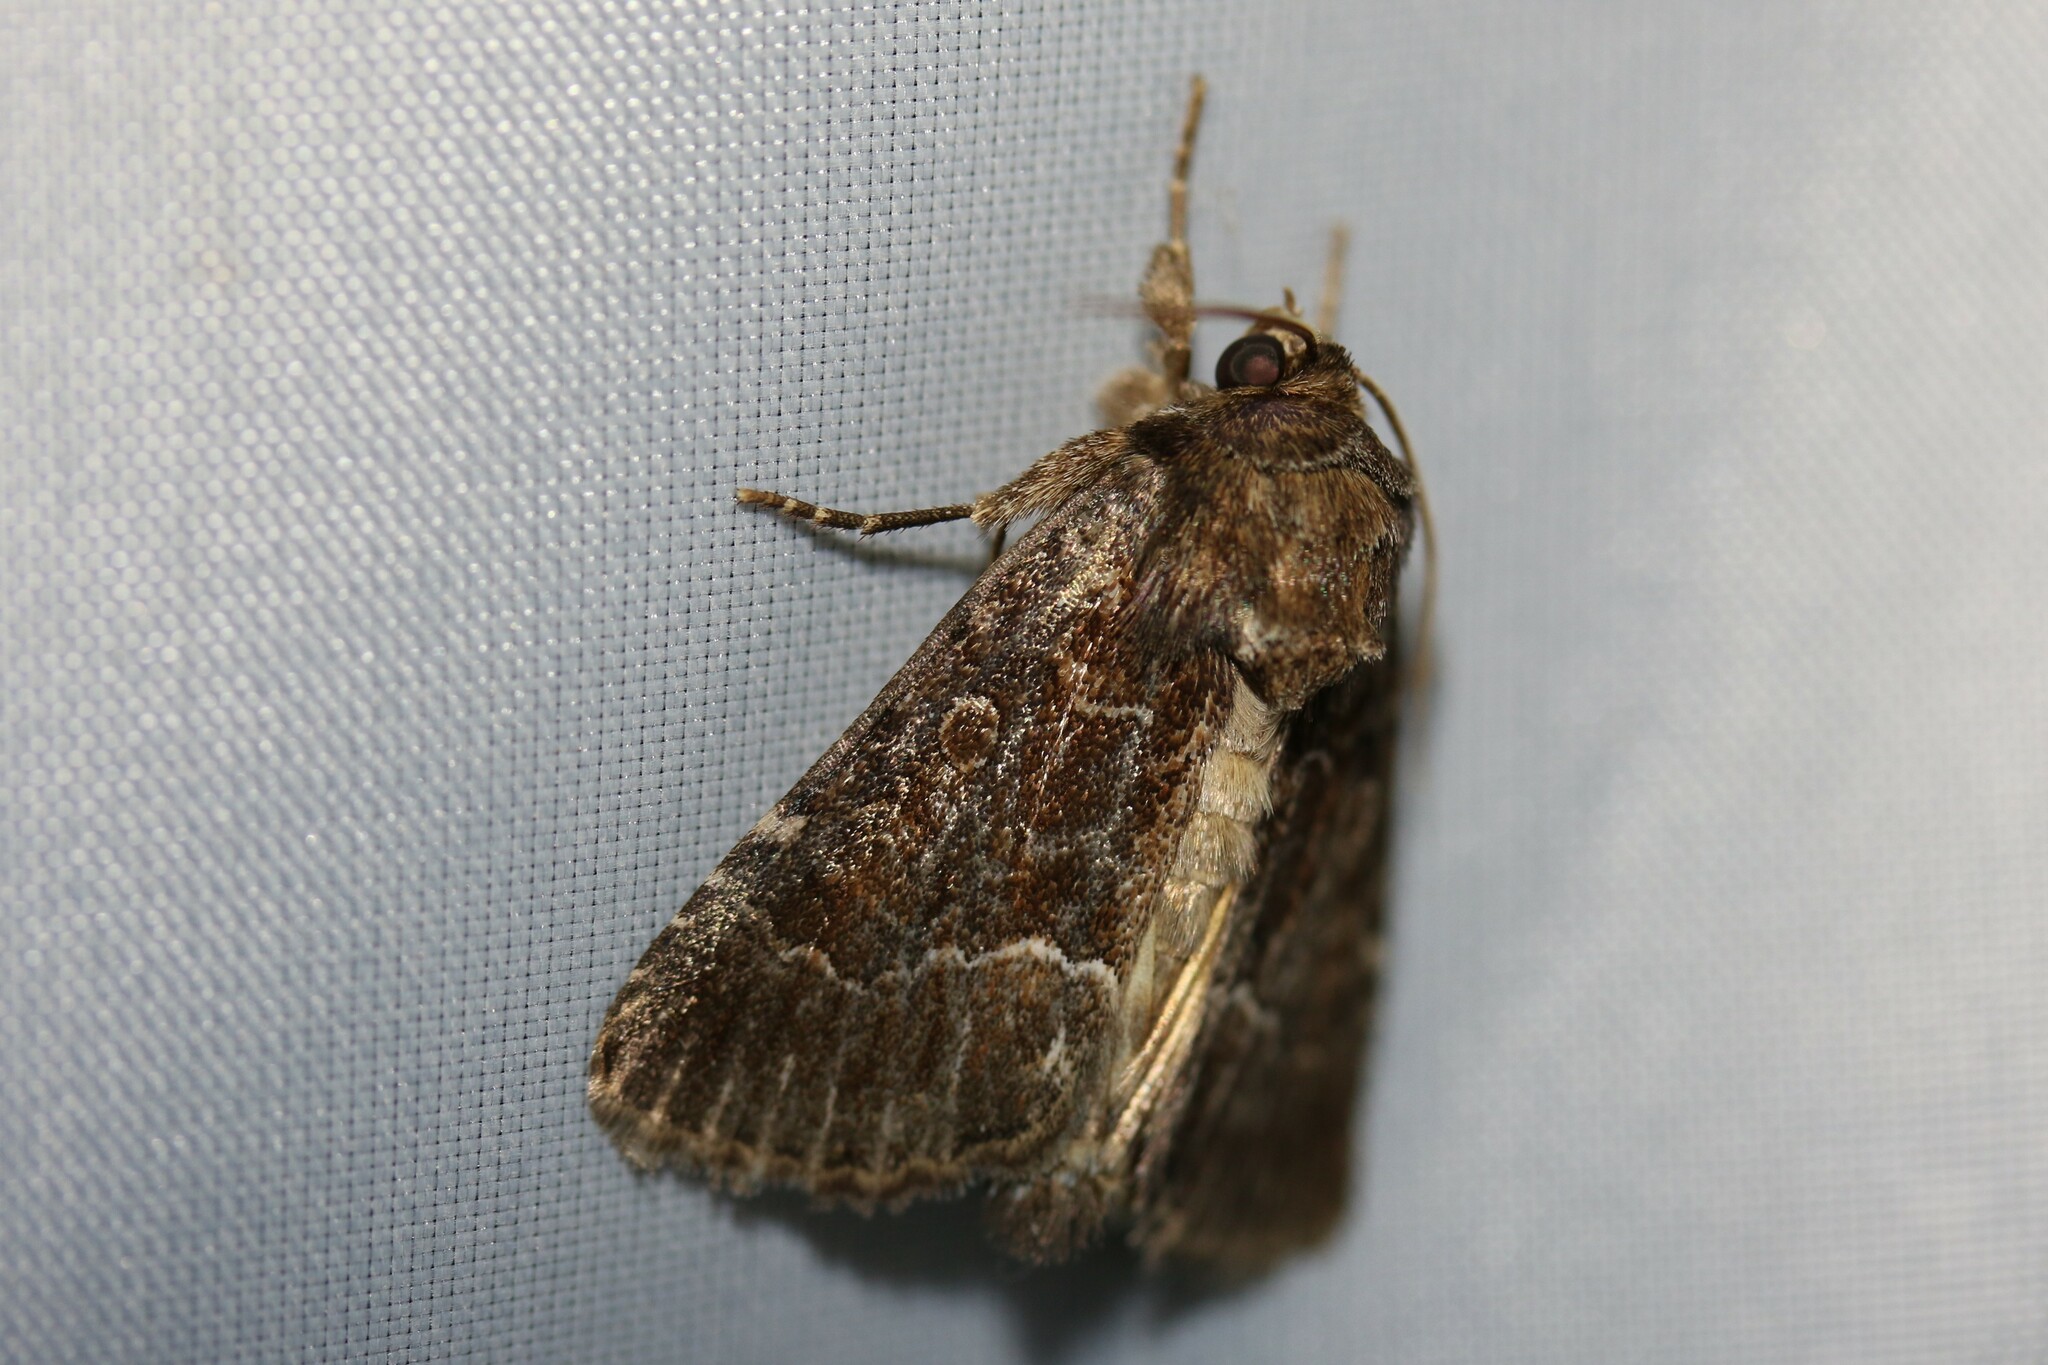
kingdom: Animalia
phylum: Arthropoda
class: Insecta
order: Lepidoptera
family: Noctuidae
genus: Thalpophila
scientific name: Thalpophila matura
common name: Straw underwing
